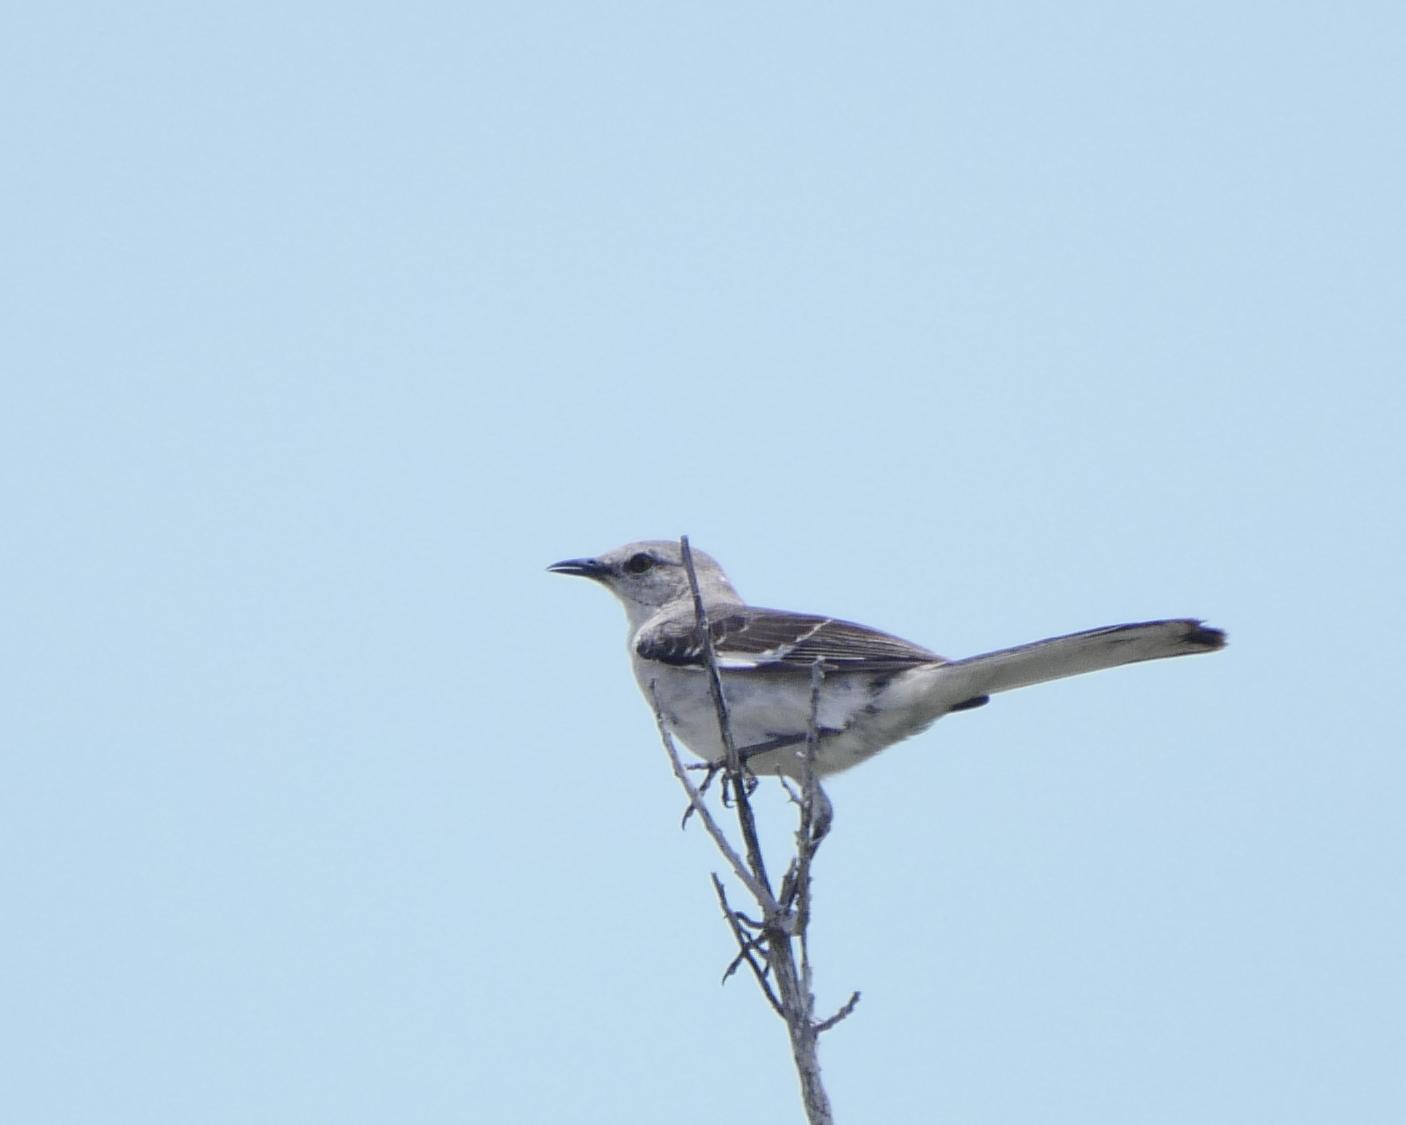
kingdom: Animalia
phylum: Chordata
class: Aves
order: Passeriformes
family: Mimidae
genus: Mimus
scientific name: Mimus polyglottos
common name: Northern mockingbird
